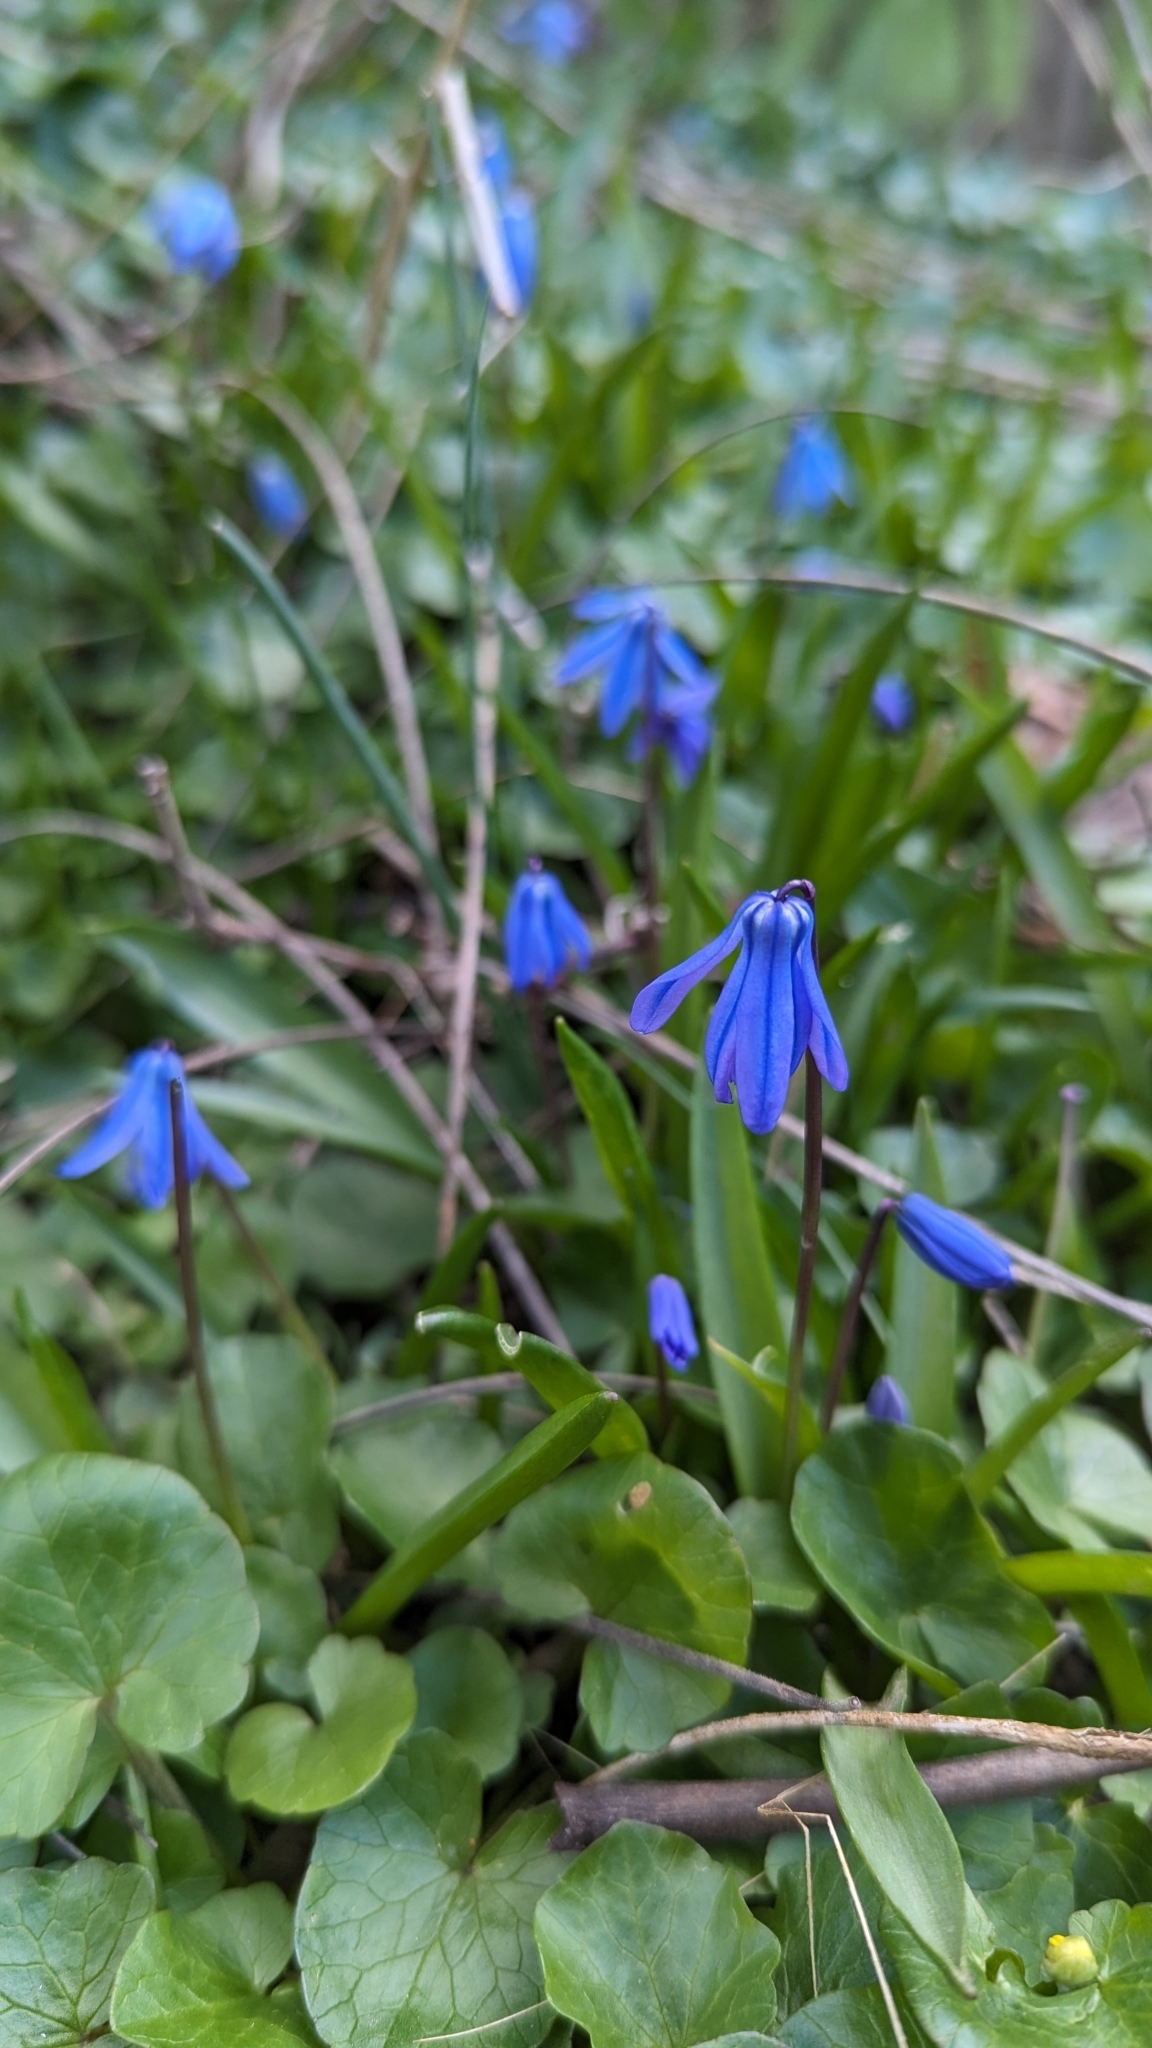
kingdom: Plantae
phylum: Tracheophyta
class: Liliopsida
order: Asparagales
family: Asparagaceae
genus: Scilla
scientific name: Scilla siberica
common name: Siberian squill
